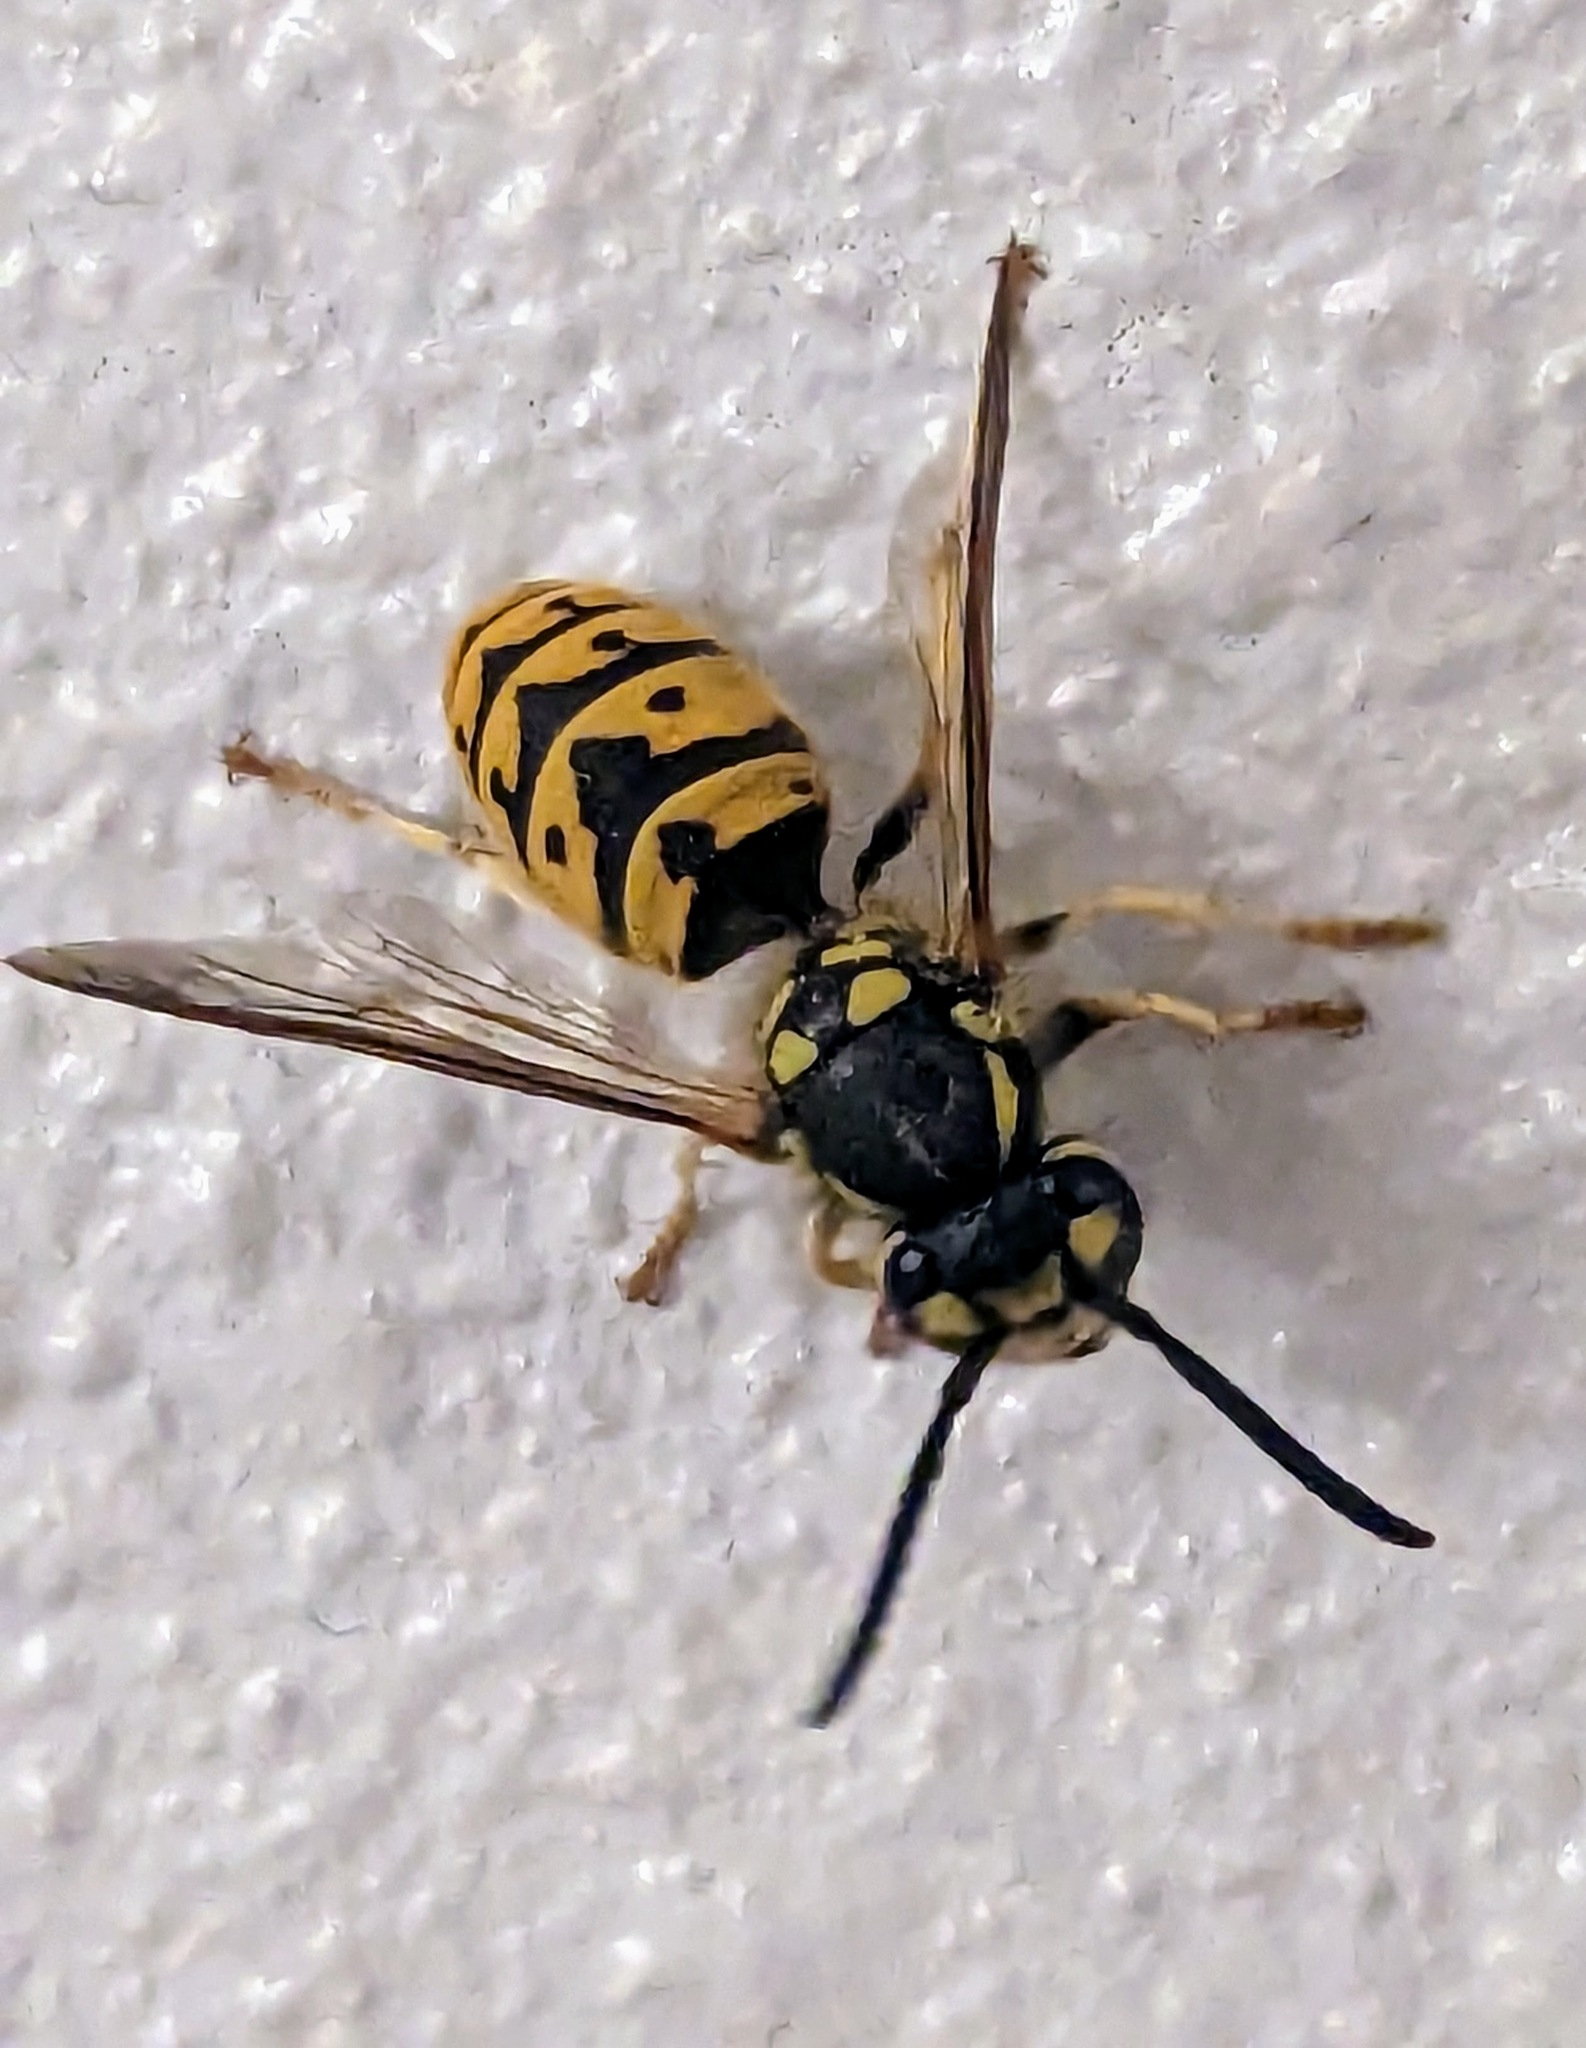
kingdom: Animalia
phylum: Arthropoda
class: Insecta
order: Hymenoptera
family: Vespidae
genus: Vespula
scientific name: Vespula germanica
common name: German wasp
